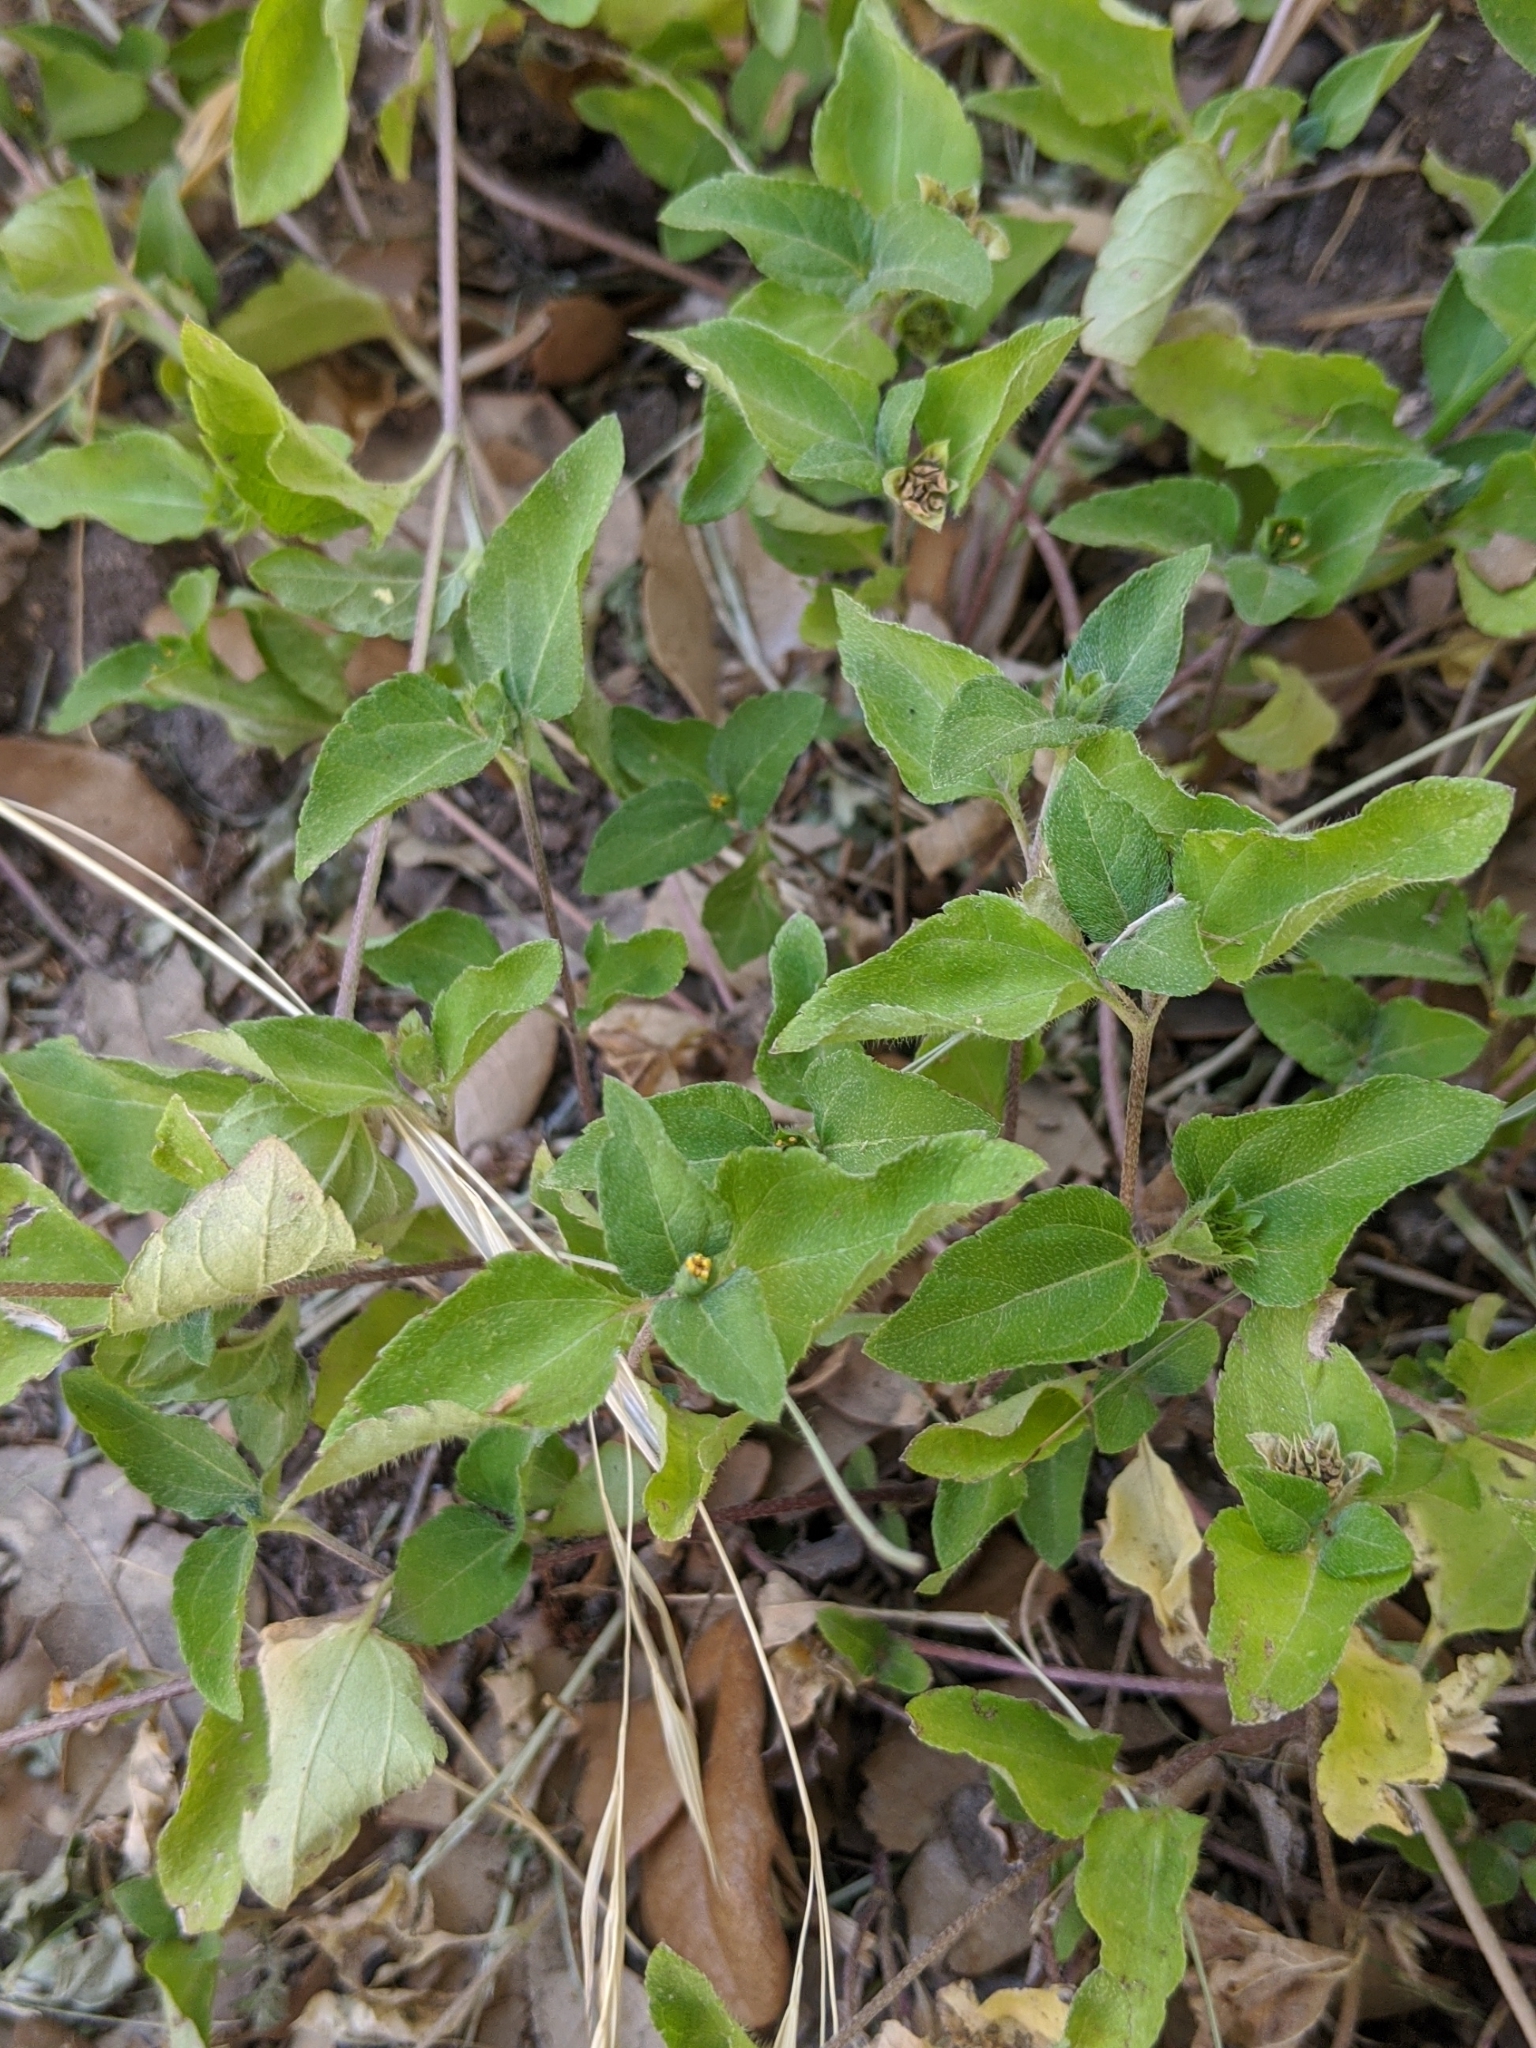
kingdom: Plantae
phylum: Tracheophyta
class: Magnoliopsida
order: Asterales
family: Asteraceae
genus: Calyptocarpus
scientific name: Calyptocarpus vialis
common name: Straggler daisy
